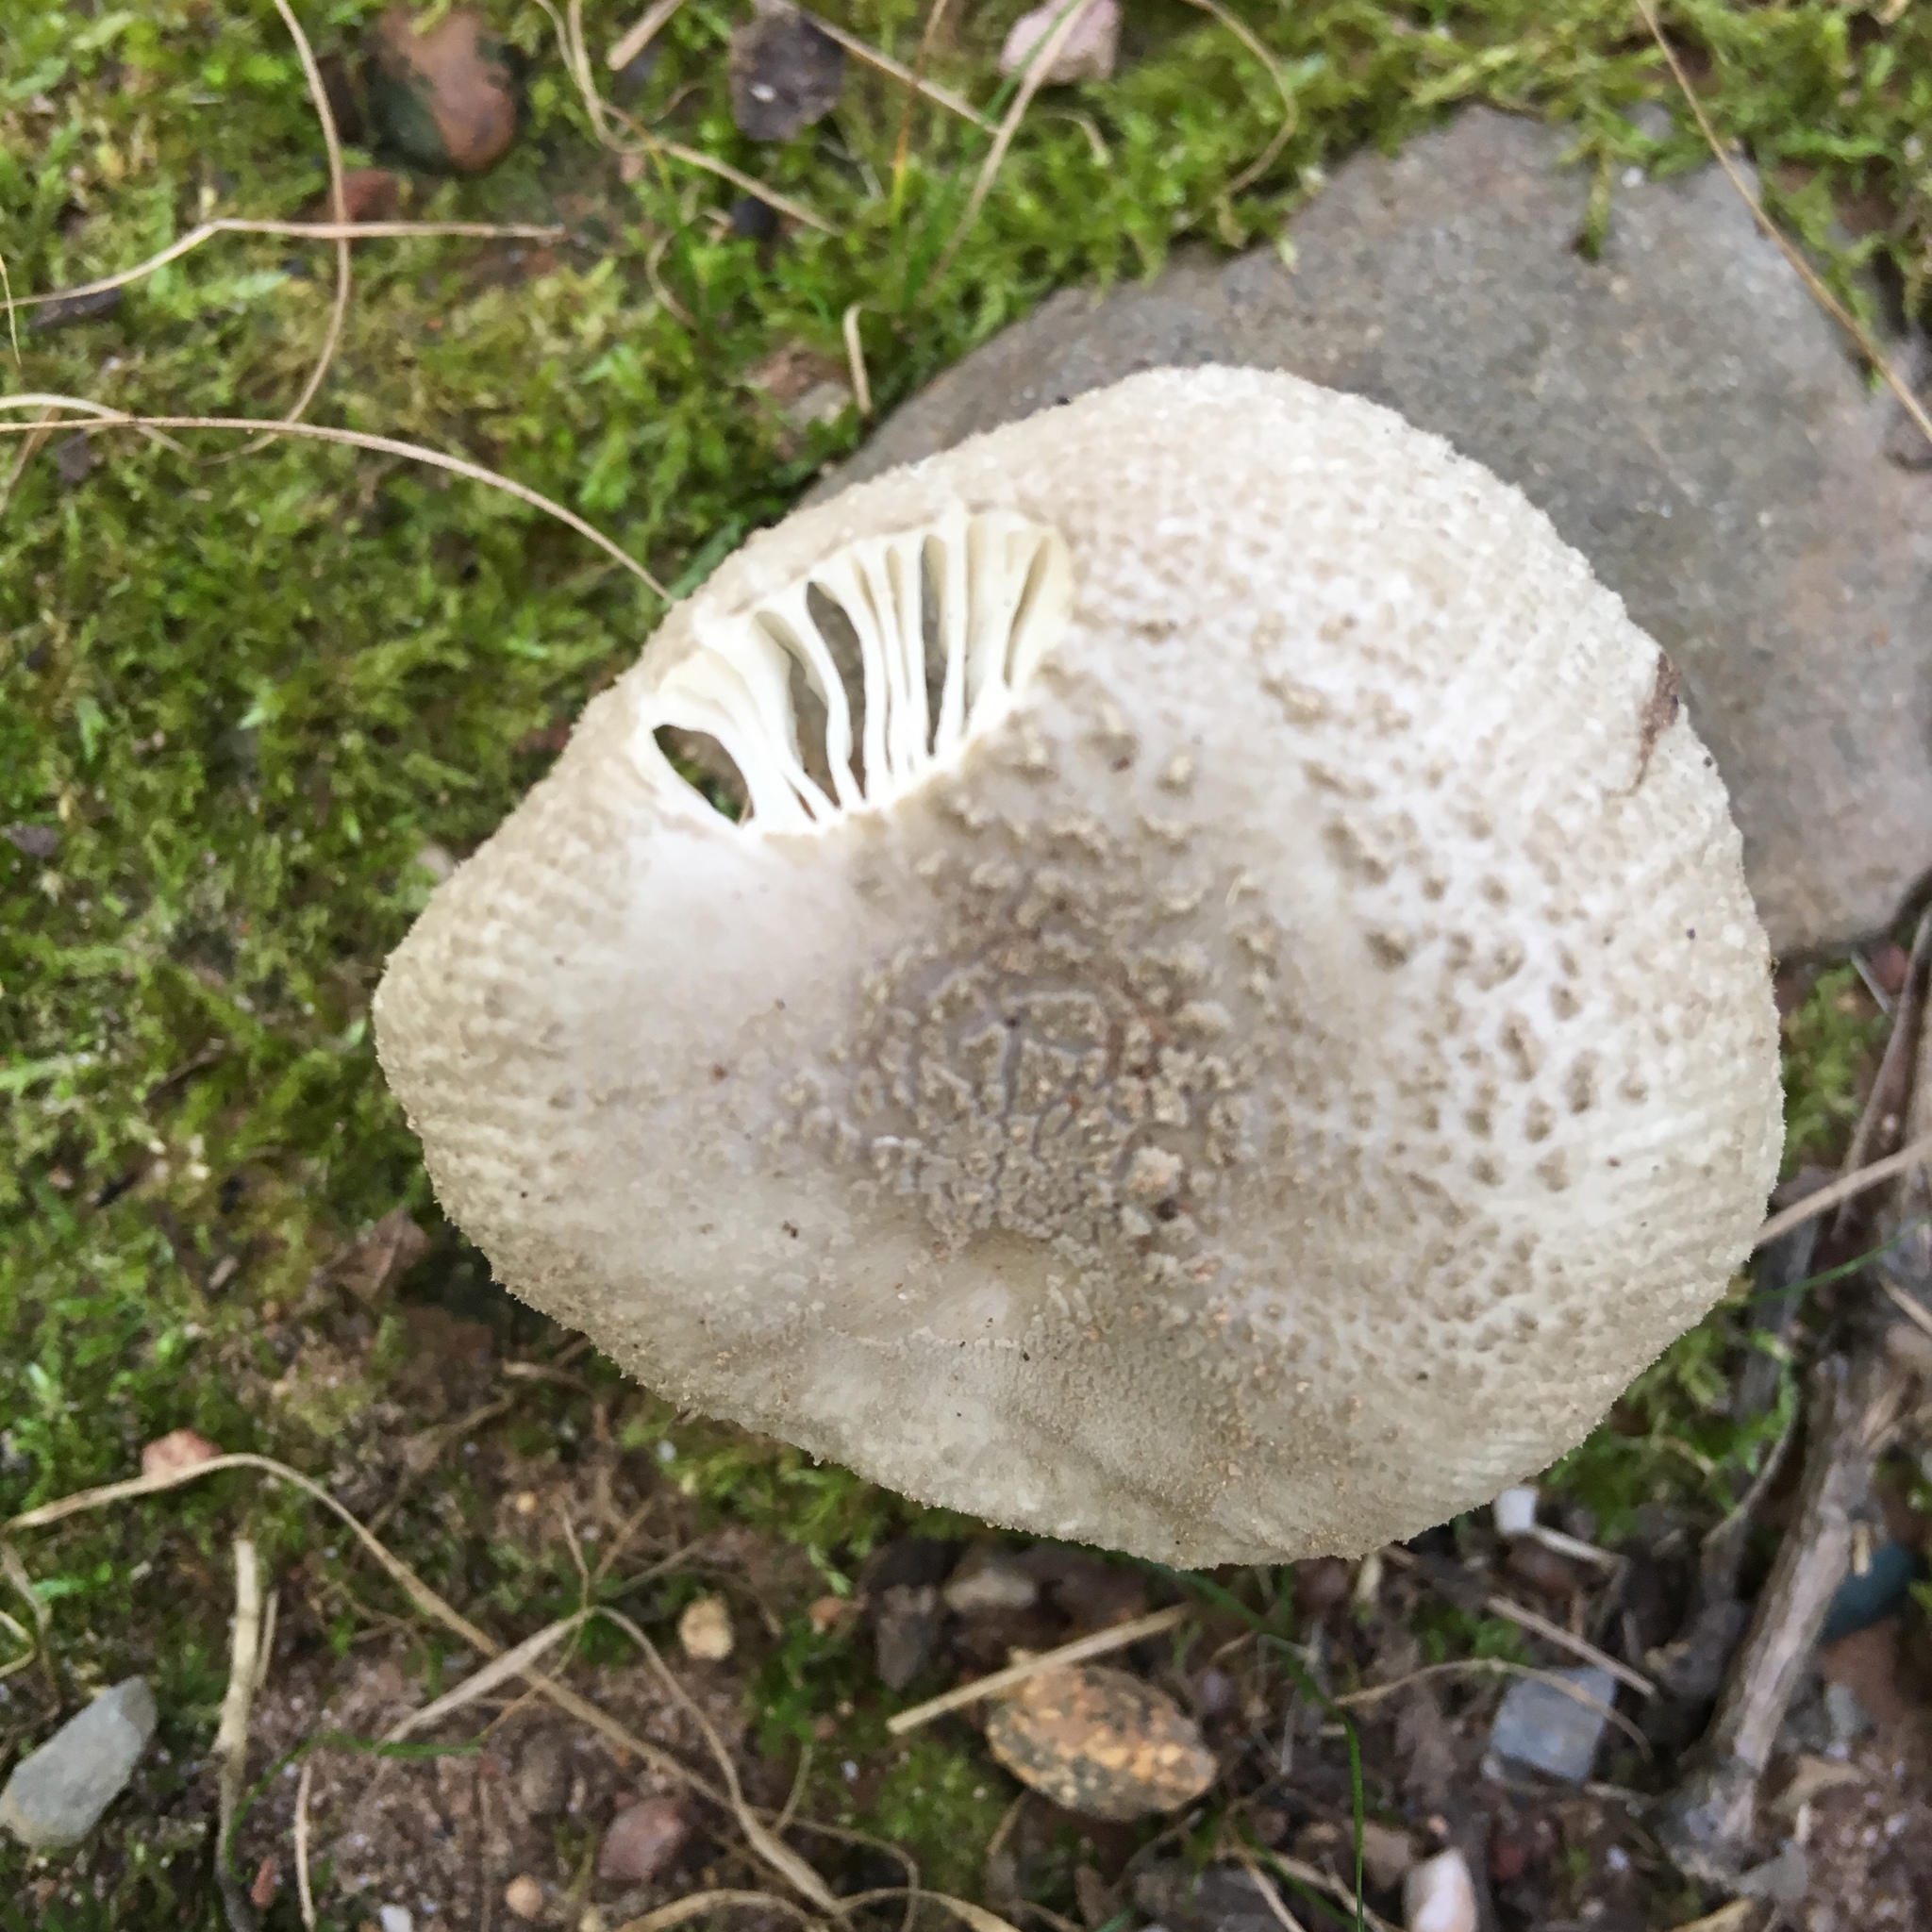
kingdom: Fungi
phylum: Basidiomycota
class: Agaricomycetes
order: Agaricales
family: Amanitaceae
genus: Amanita
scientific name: Amanita farinosa
